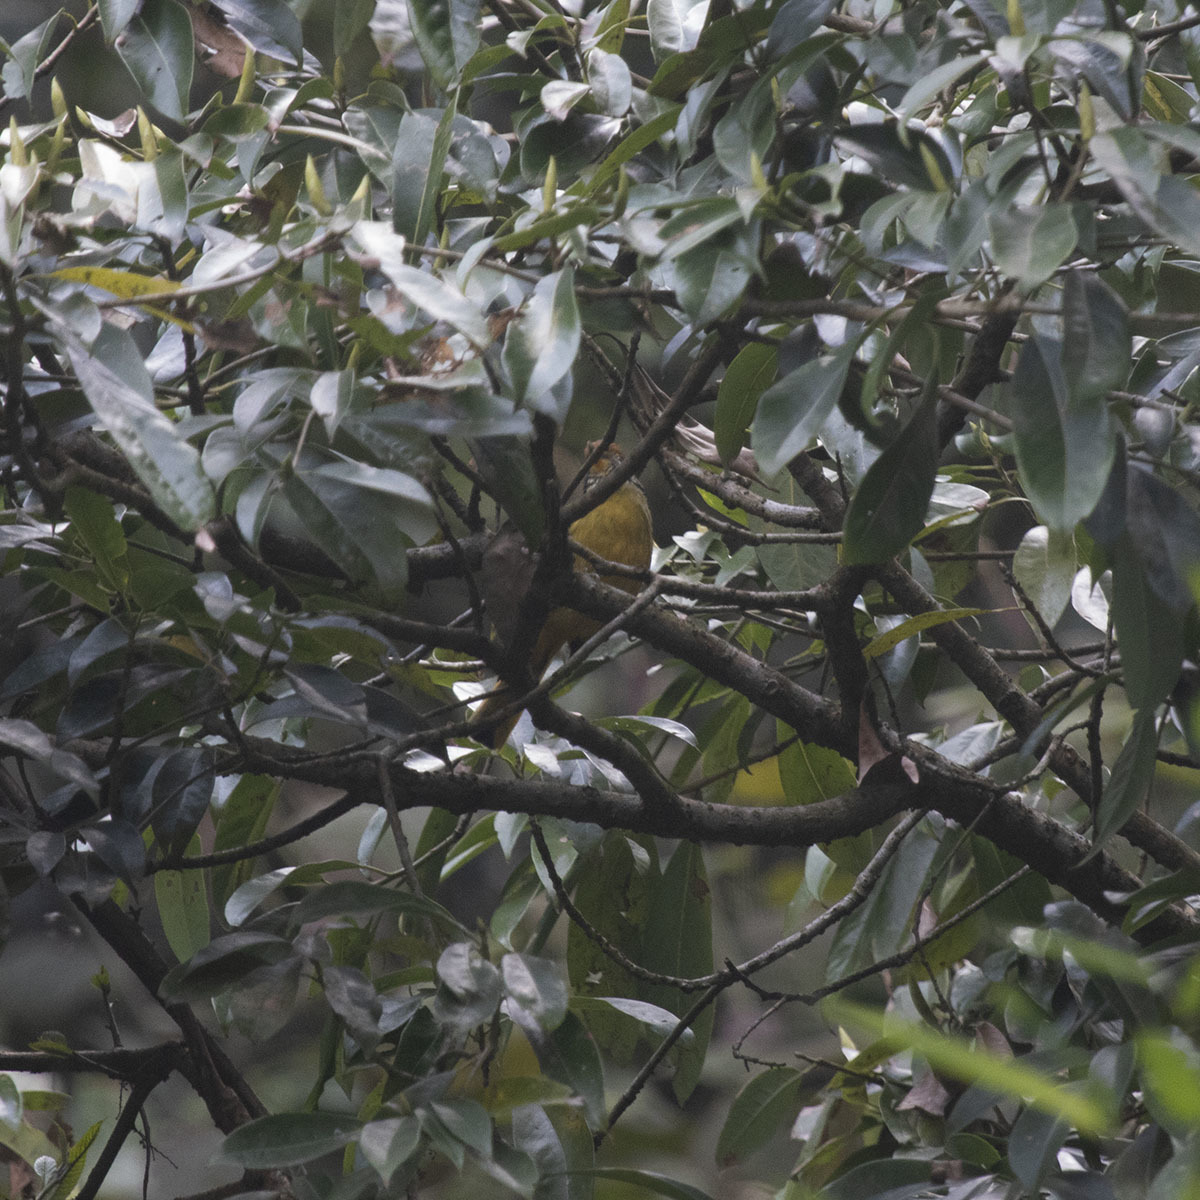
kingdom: Animalia
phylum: Chordata
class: Aves
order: Passeriformes
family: Leiothrichidae
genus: Minla
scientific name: Minla strigula
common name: Chestnut-tailed minla
